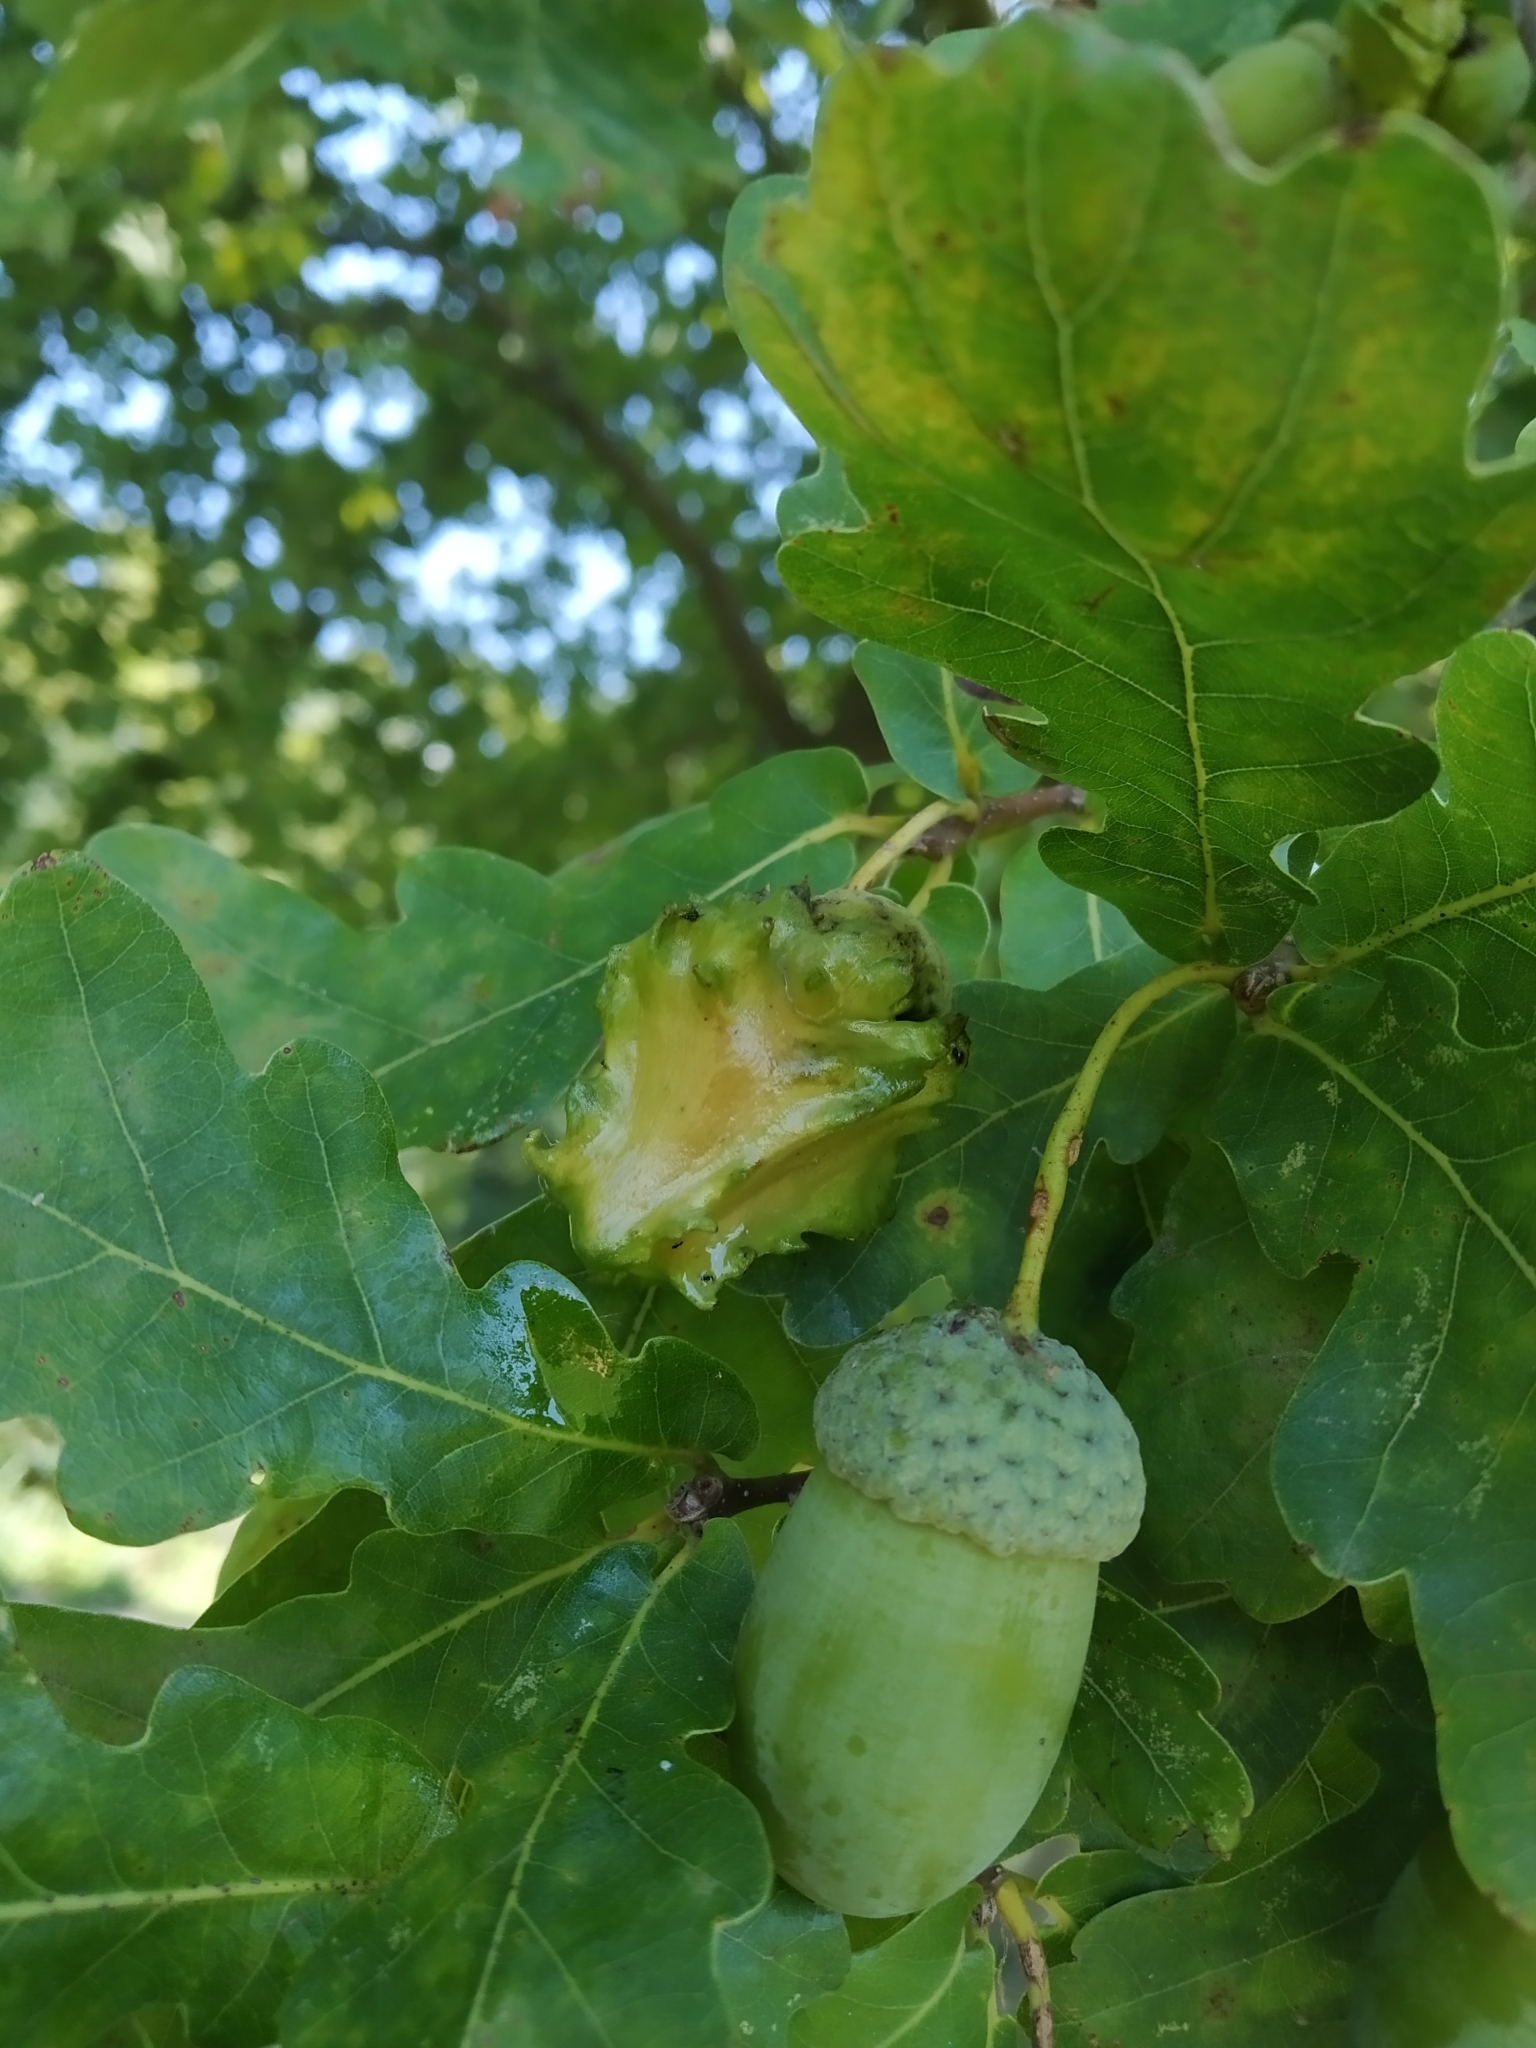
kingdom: Animalia
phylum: Arthropoda
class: Insecta
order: Hymenoptera
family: Cynipidae
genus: Andricus
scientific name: Andricus quercuscalicis
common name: Knopper gall
